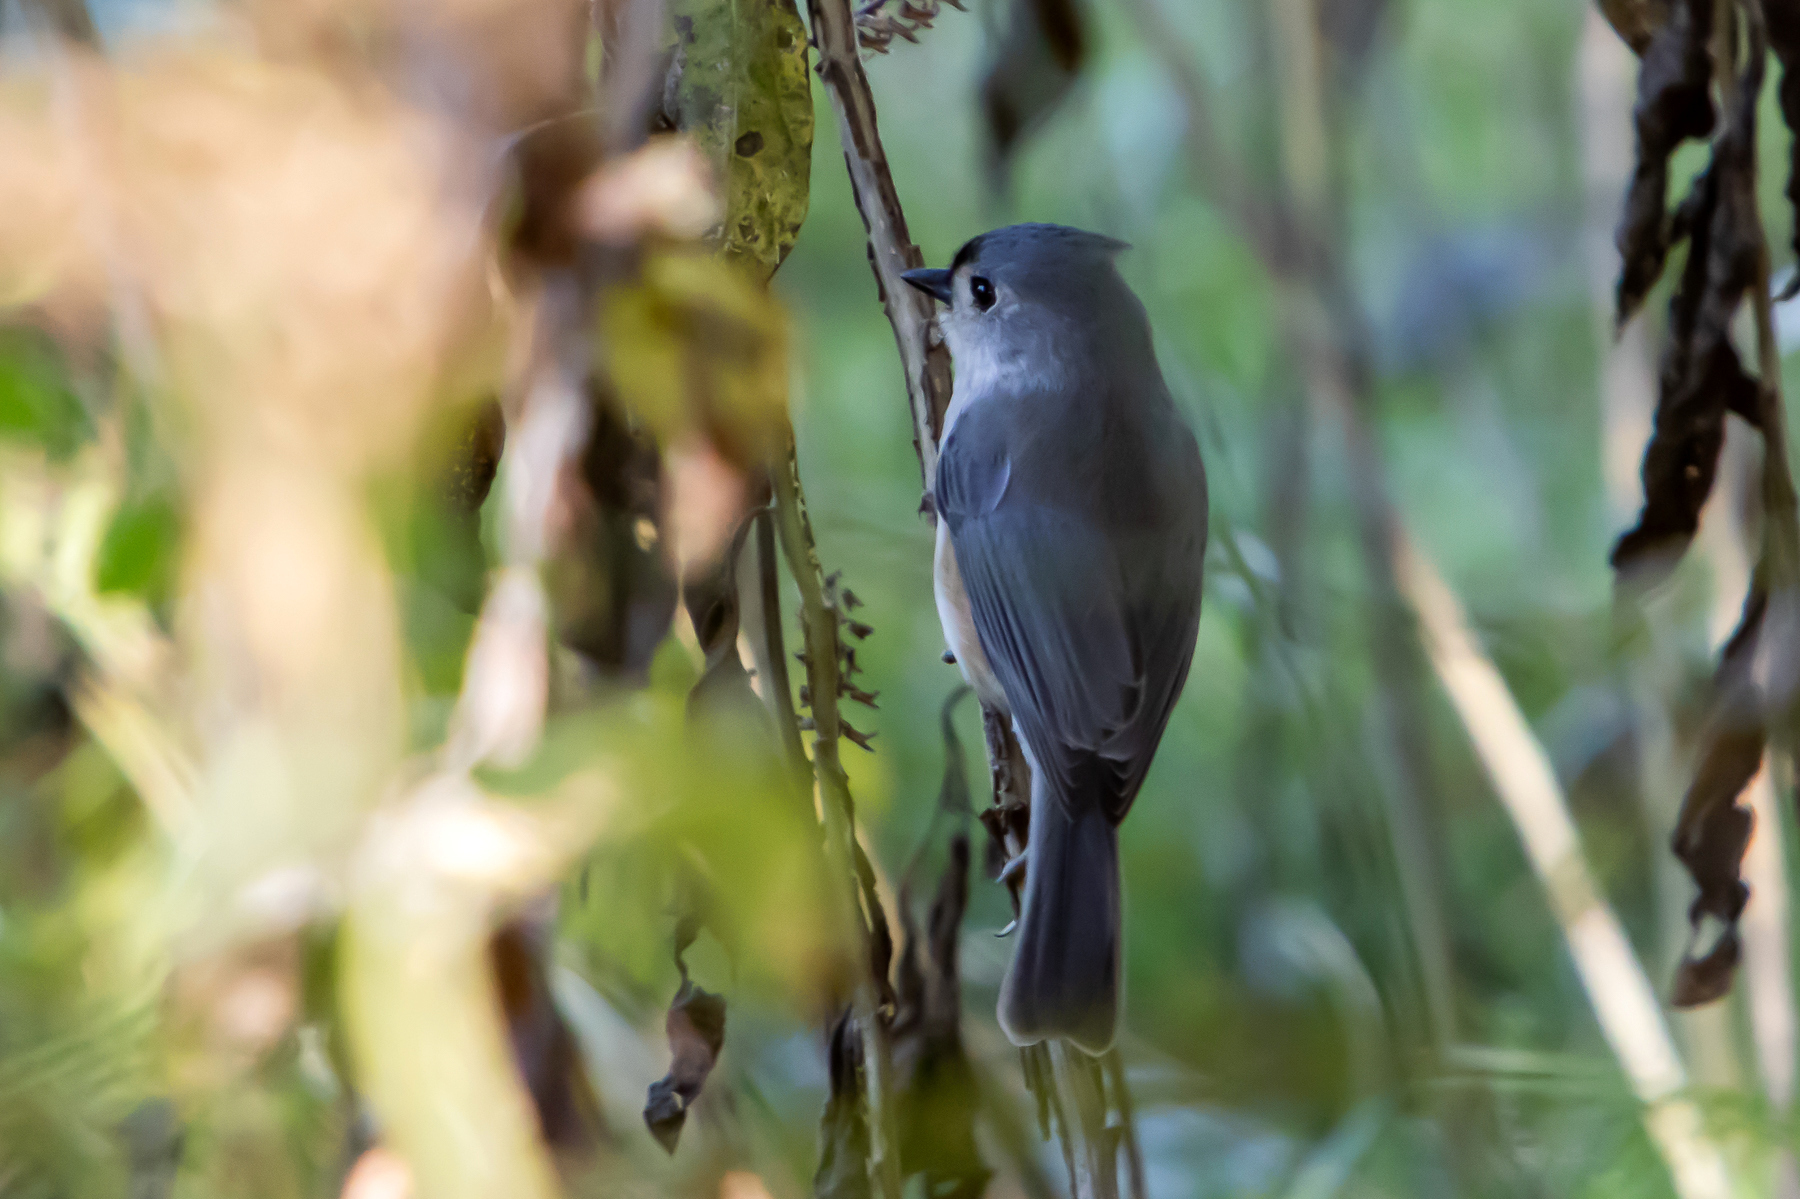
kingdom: Animalia
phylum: Chordata
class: Aves
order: Passeriformes
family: Paridae
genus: Baeolophus
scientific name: Baeolophus bicolor
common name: Tufted titmouse
